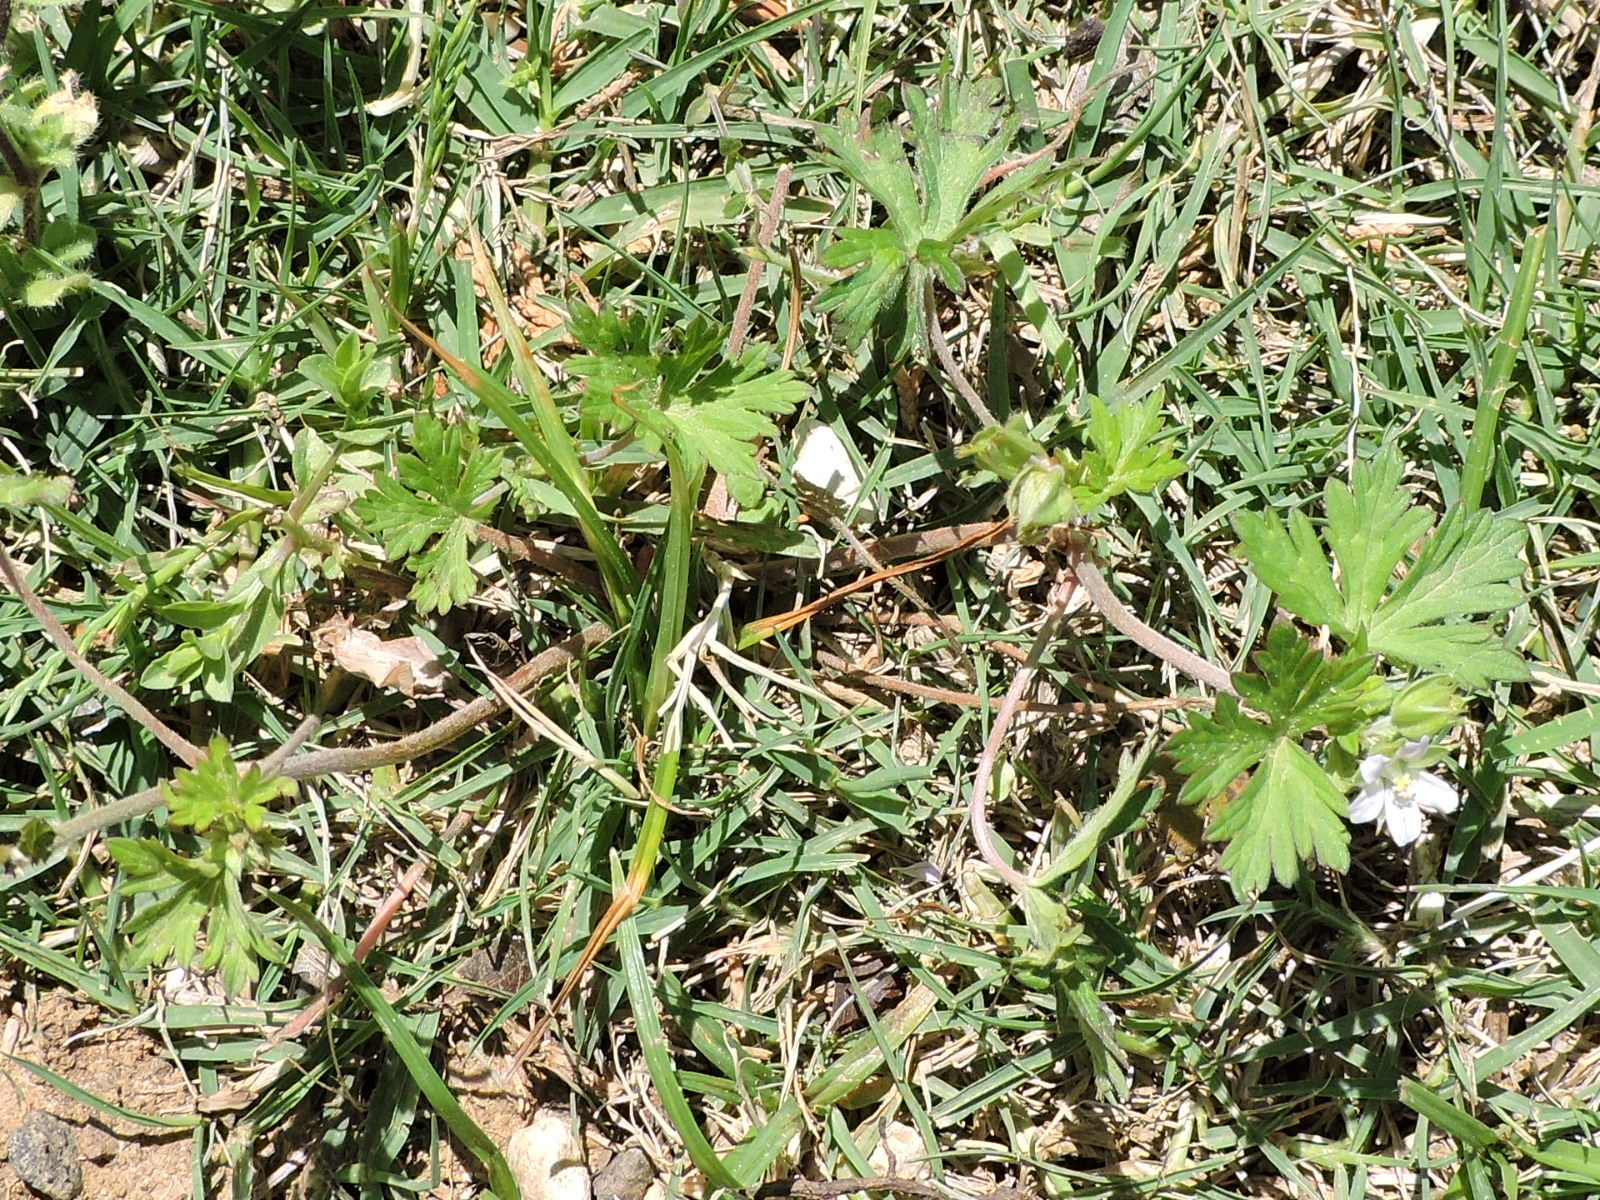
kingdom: Plantae
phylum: Tracheophyta
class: Magnoliopsida
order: Geraniales
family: Geraniaceae
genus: Geranium
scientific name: Geranium carolinianum
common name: Carolina crane's-bill
